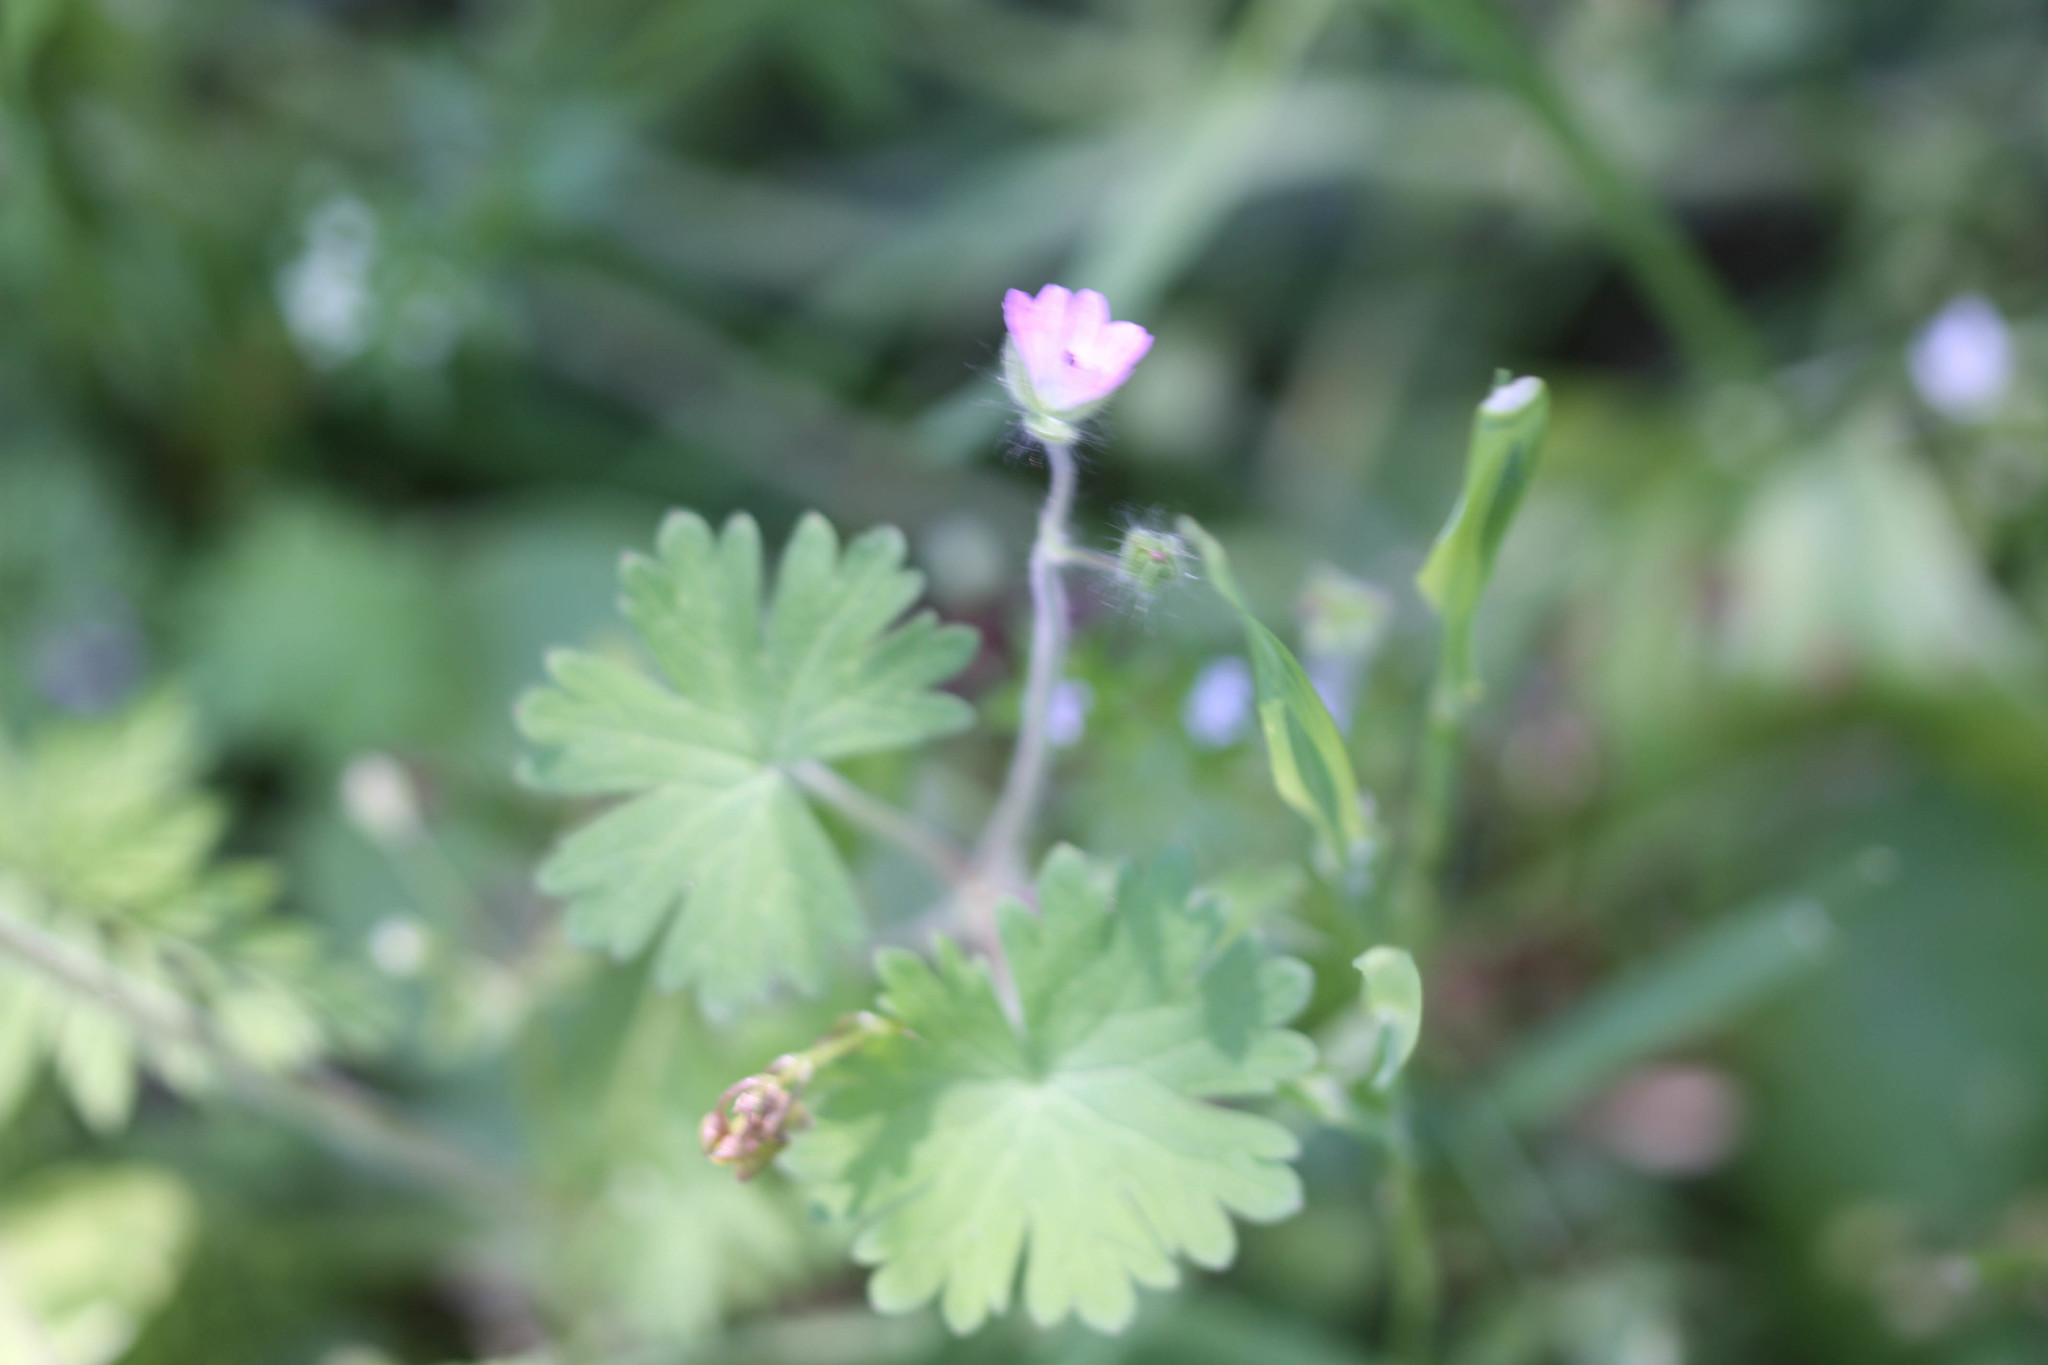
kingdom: Plantae
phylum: Tracheophyta
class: Magnoliopsida
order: Geraniales
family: Geraniaceae
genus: Geranium
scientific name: Geranium molle
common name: Dove's-foot crane's-bill
